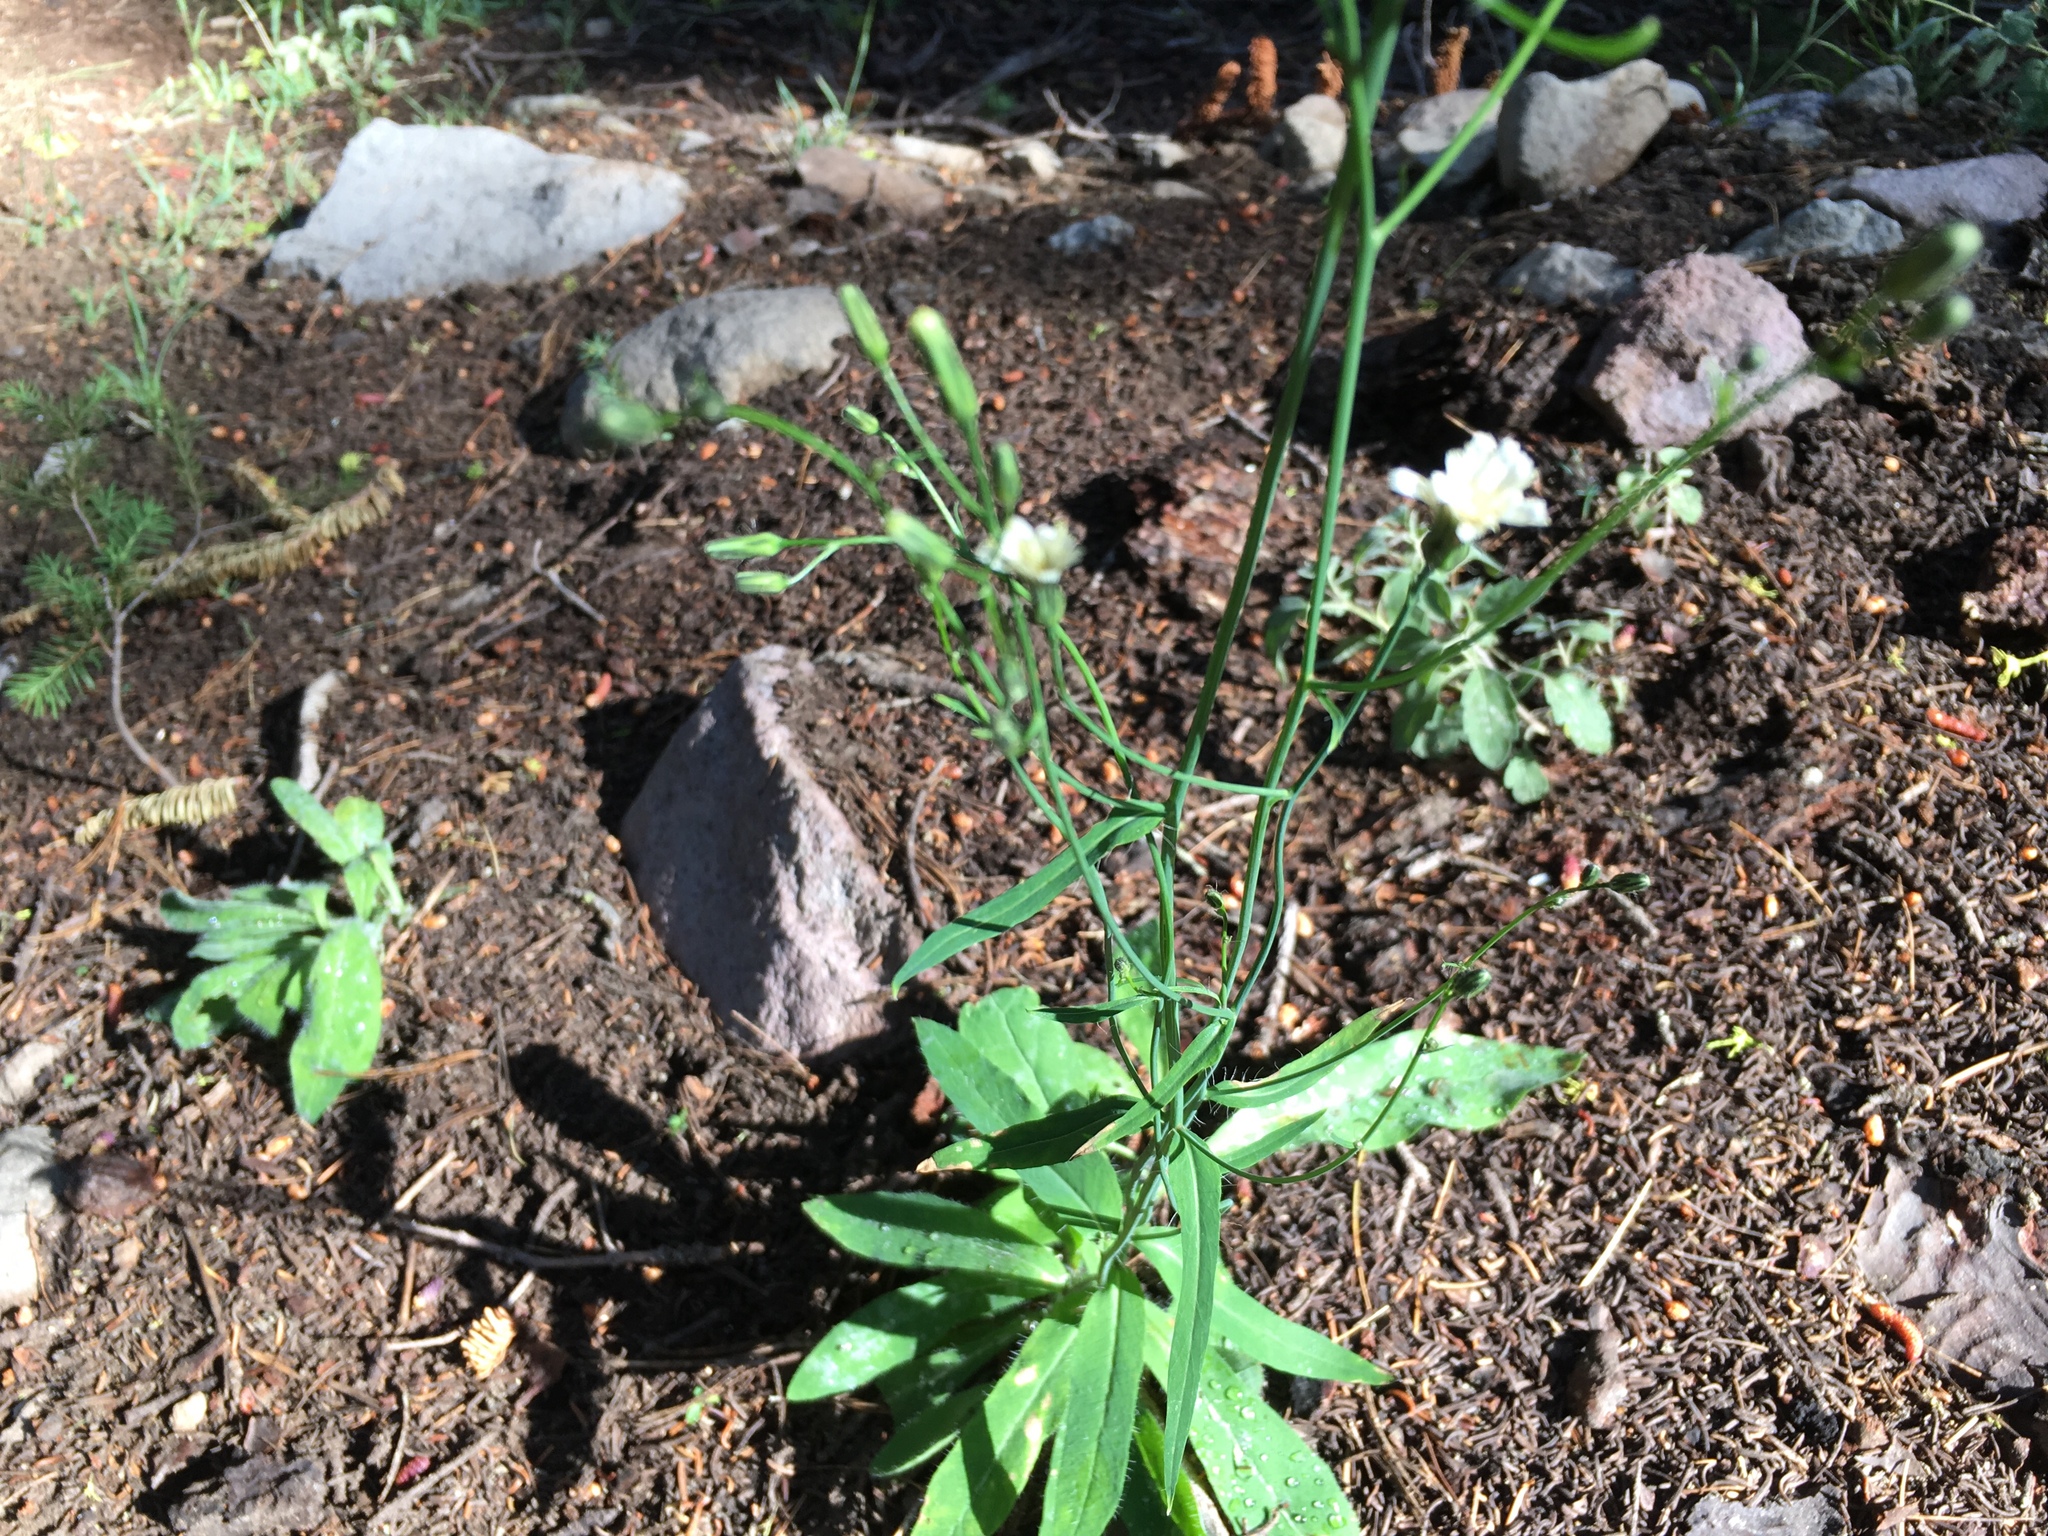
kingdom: Plantae
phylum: Tracheophyta
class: Magnoliopsida
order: Asterales
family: Asteraceae
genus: Hieracium
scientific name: Hieracium albiflorum
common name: White hawkweed
